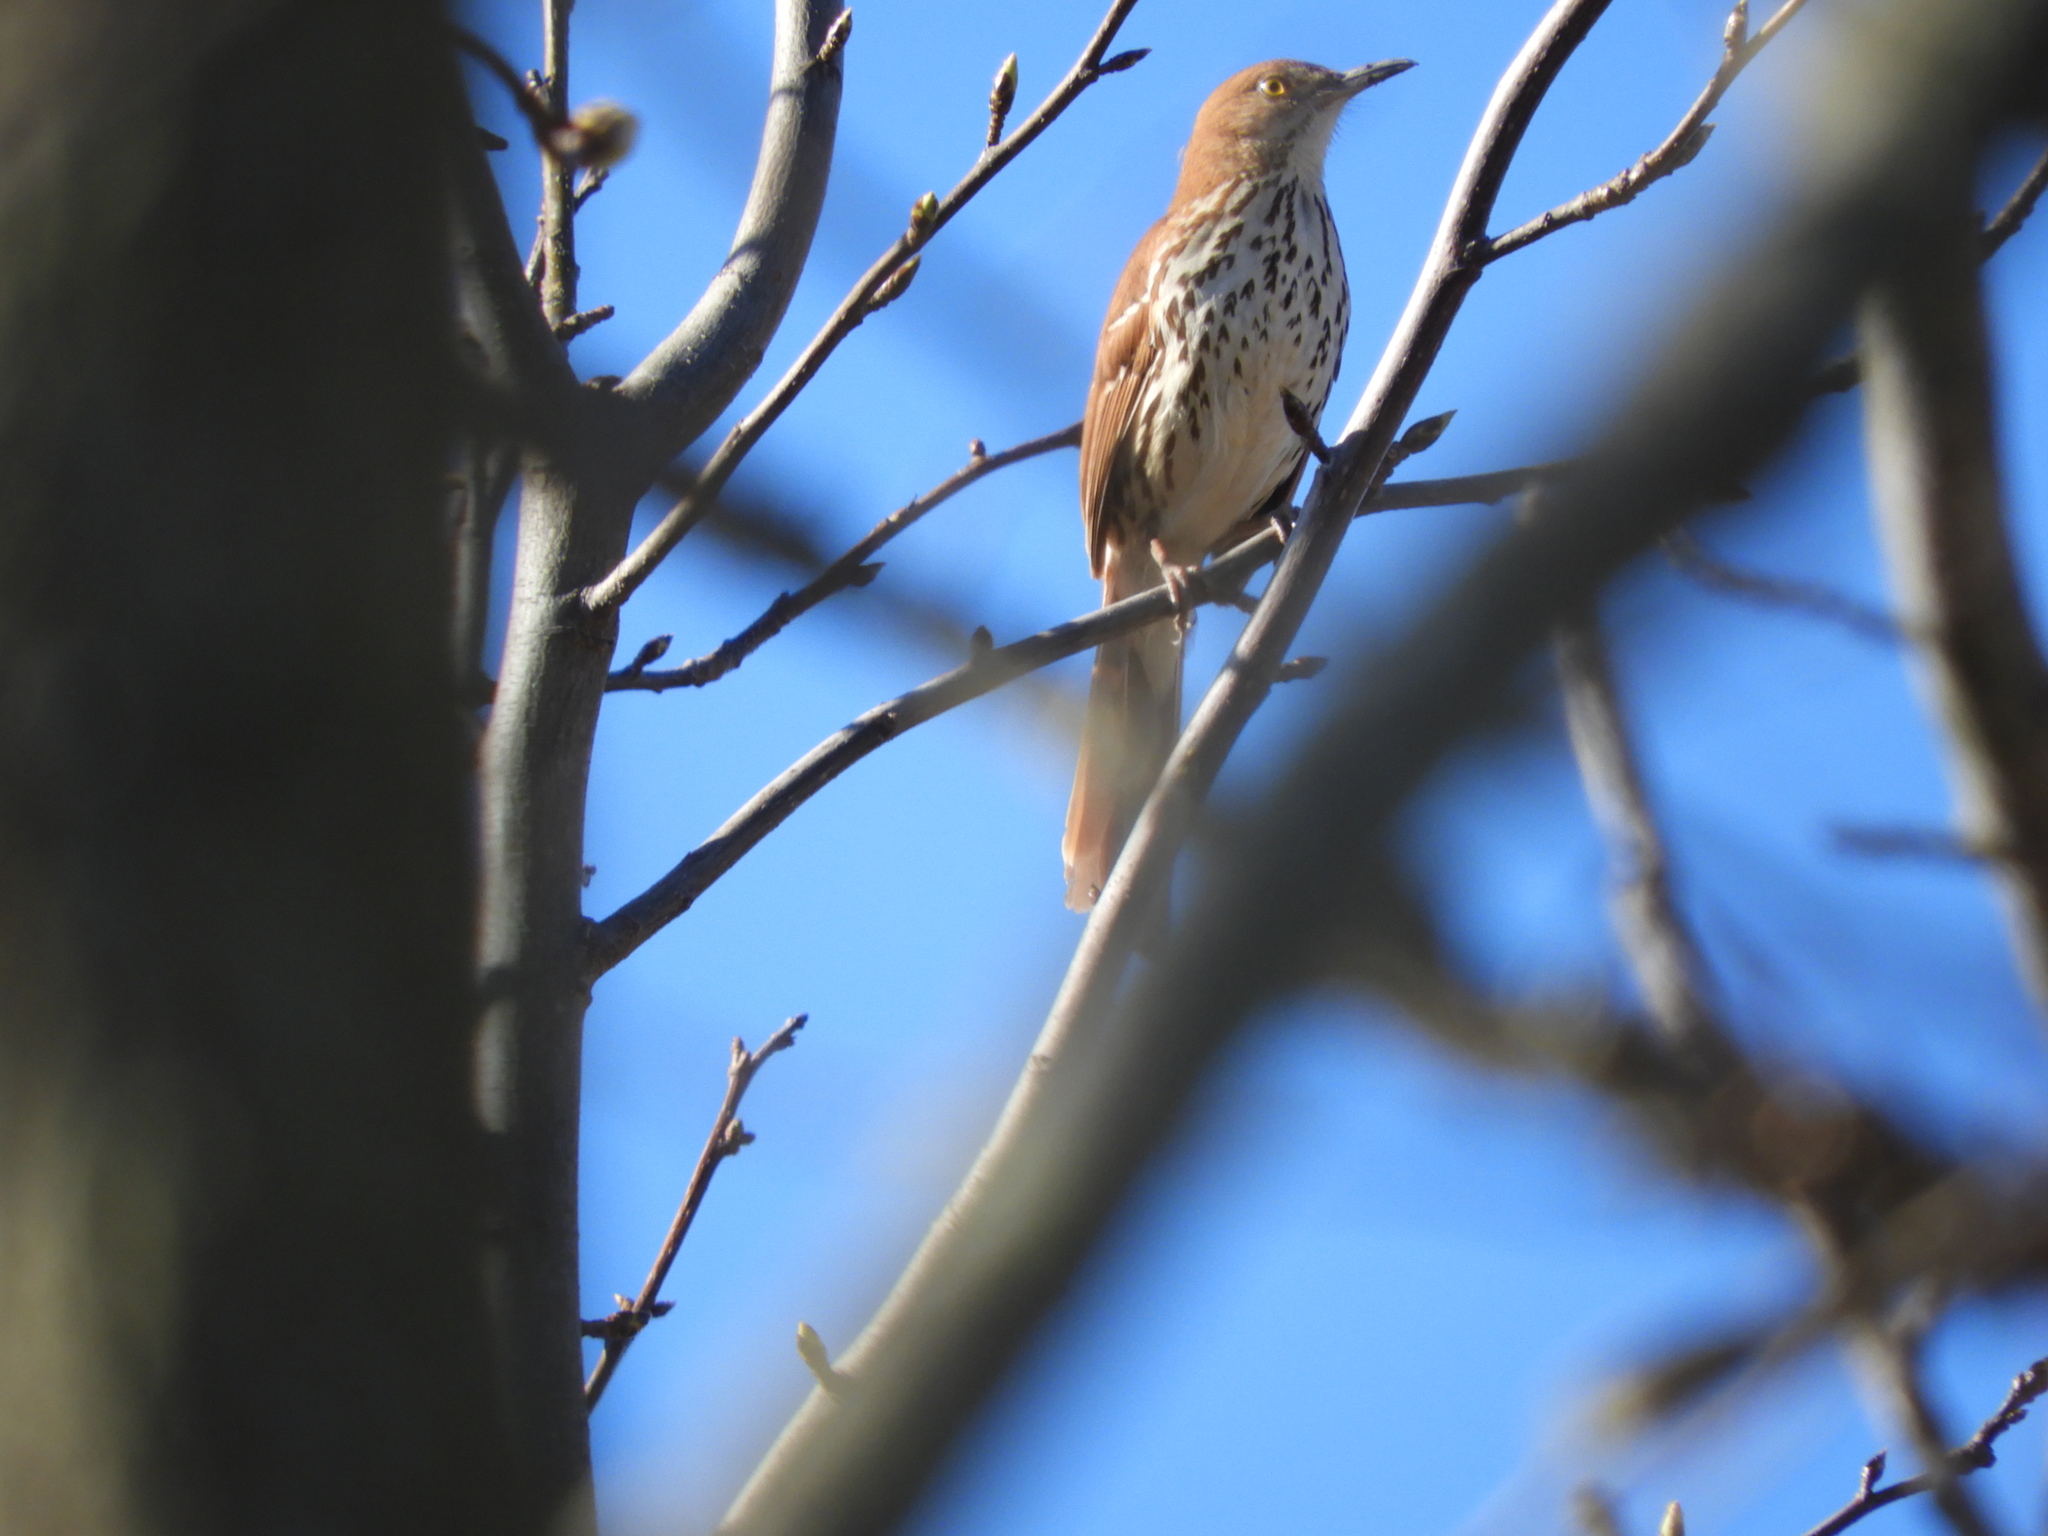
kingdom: Animalia
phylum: Chordata
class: Aves
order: Passeriformes
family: Mimidae
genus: Toxostoma
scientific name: Toxostoma rufum
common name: Brown thrasher
